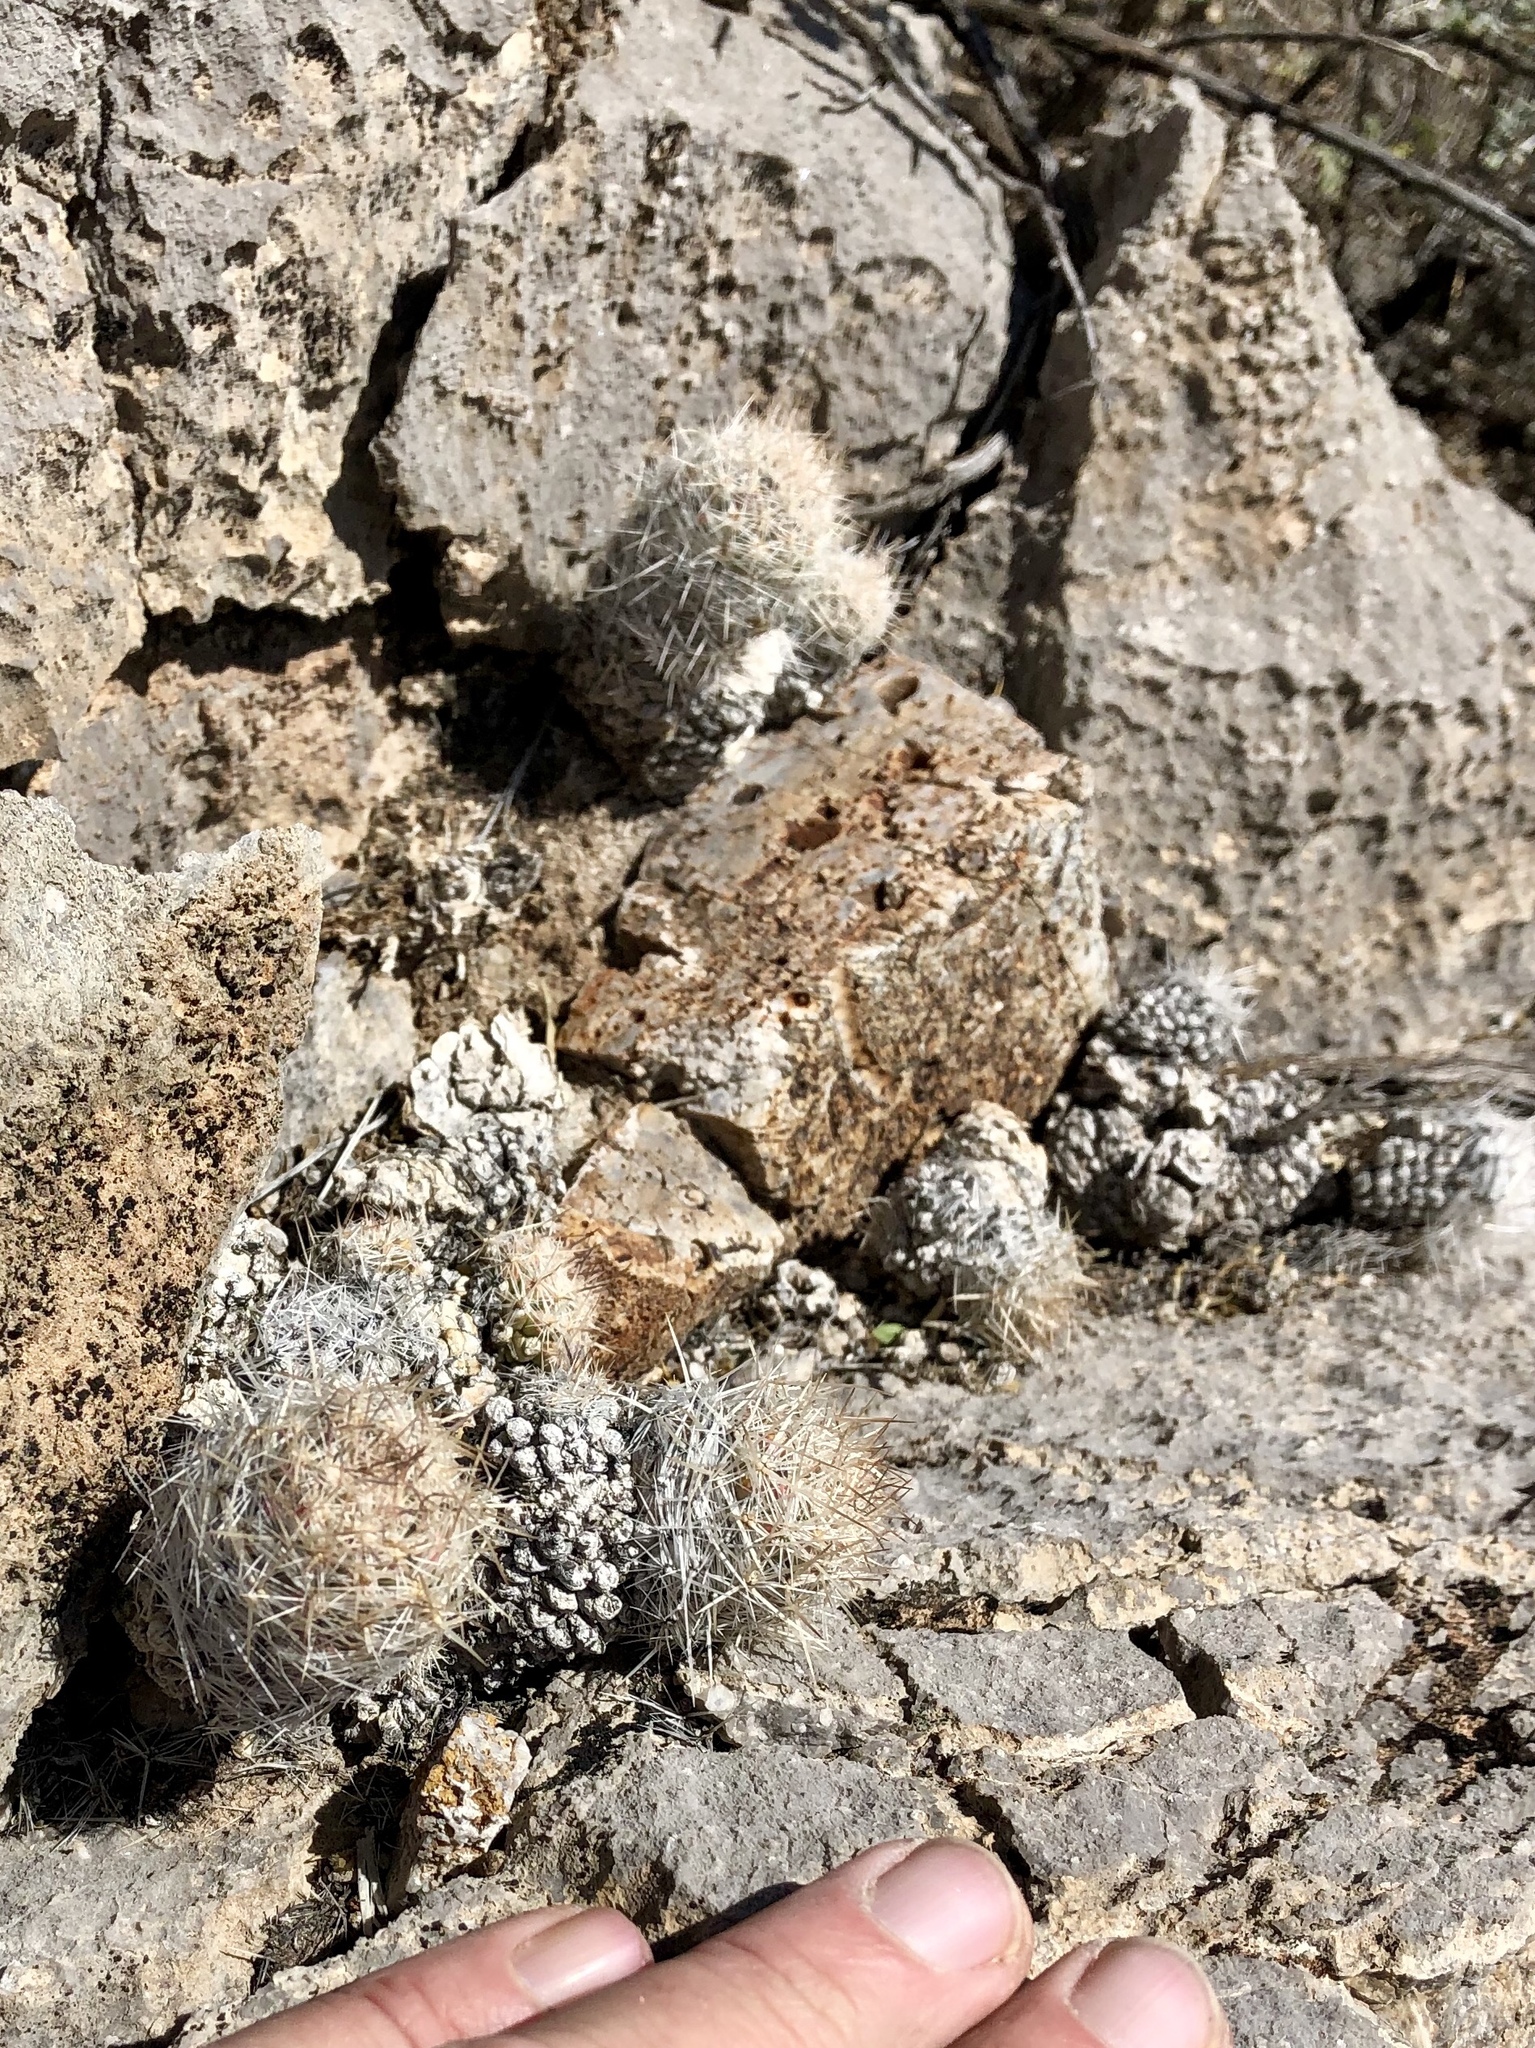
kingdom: Plantae
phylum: Tracheophyta
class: Magnoliopsida
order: Caryophyllales
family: Cactaceae
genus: Pelecyphora
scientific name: Pelecyphora tuberculosa
